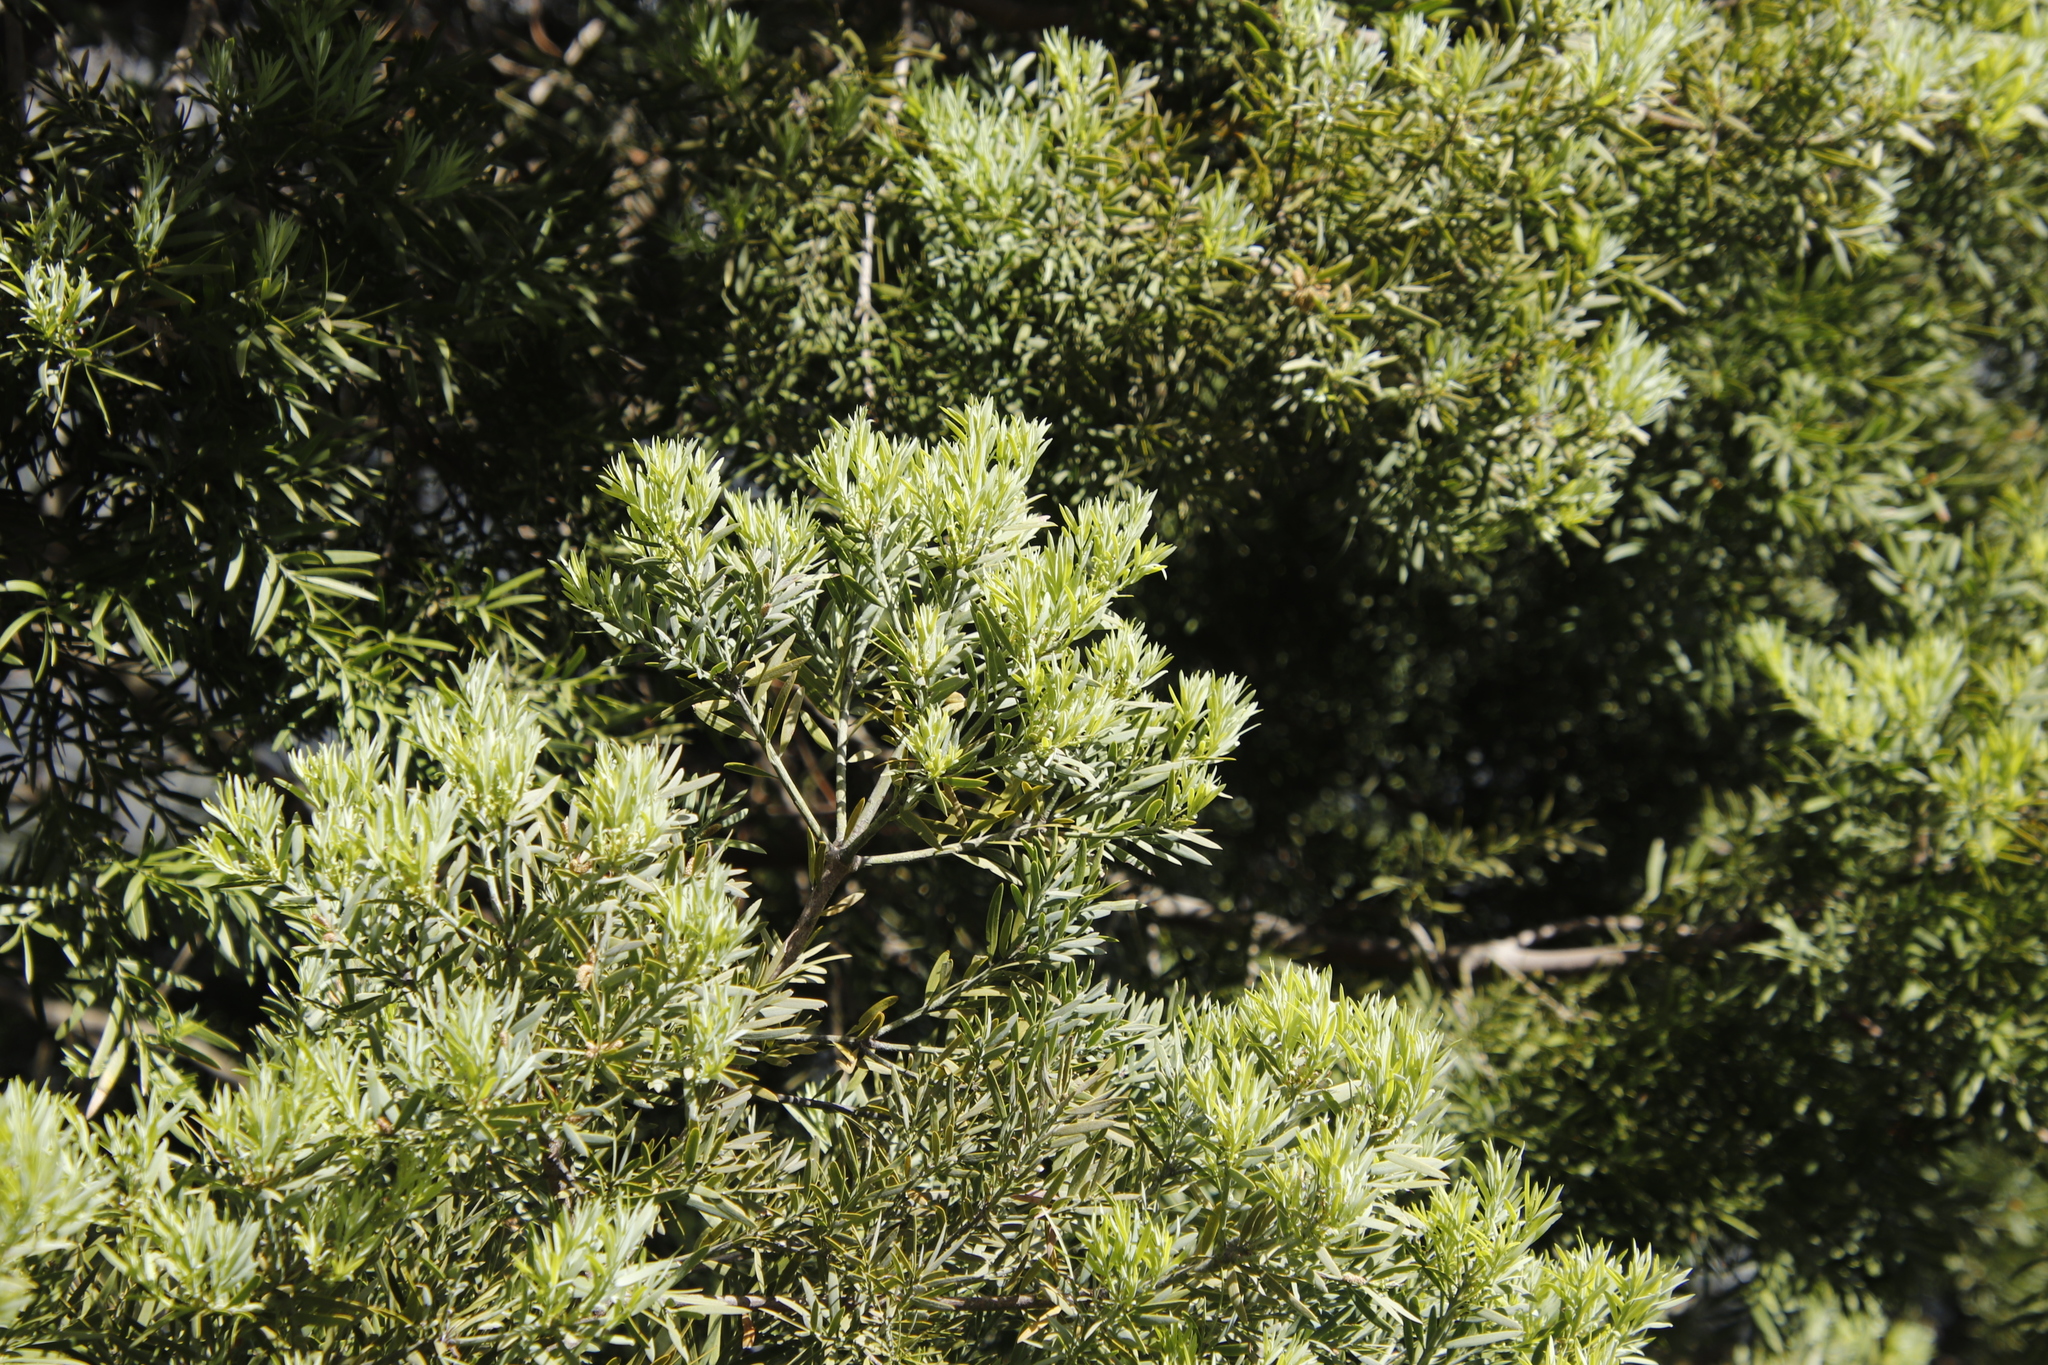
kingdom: Plantae
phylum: Tracheophyta
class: Pinopsida
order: Pinales
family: Podocarpaceae
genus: Afrocarpus
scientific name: Afrocarpus falcatus
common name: Bastard yellowwood
